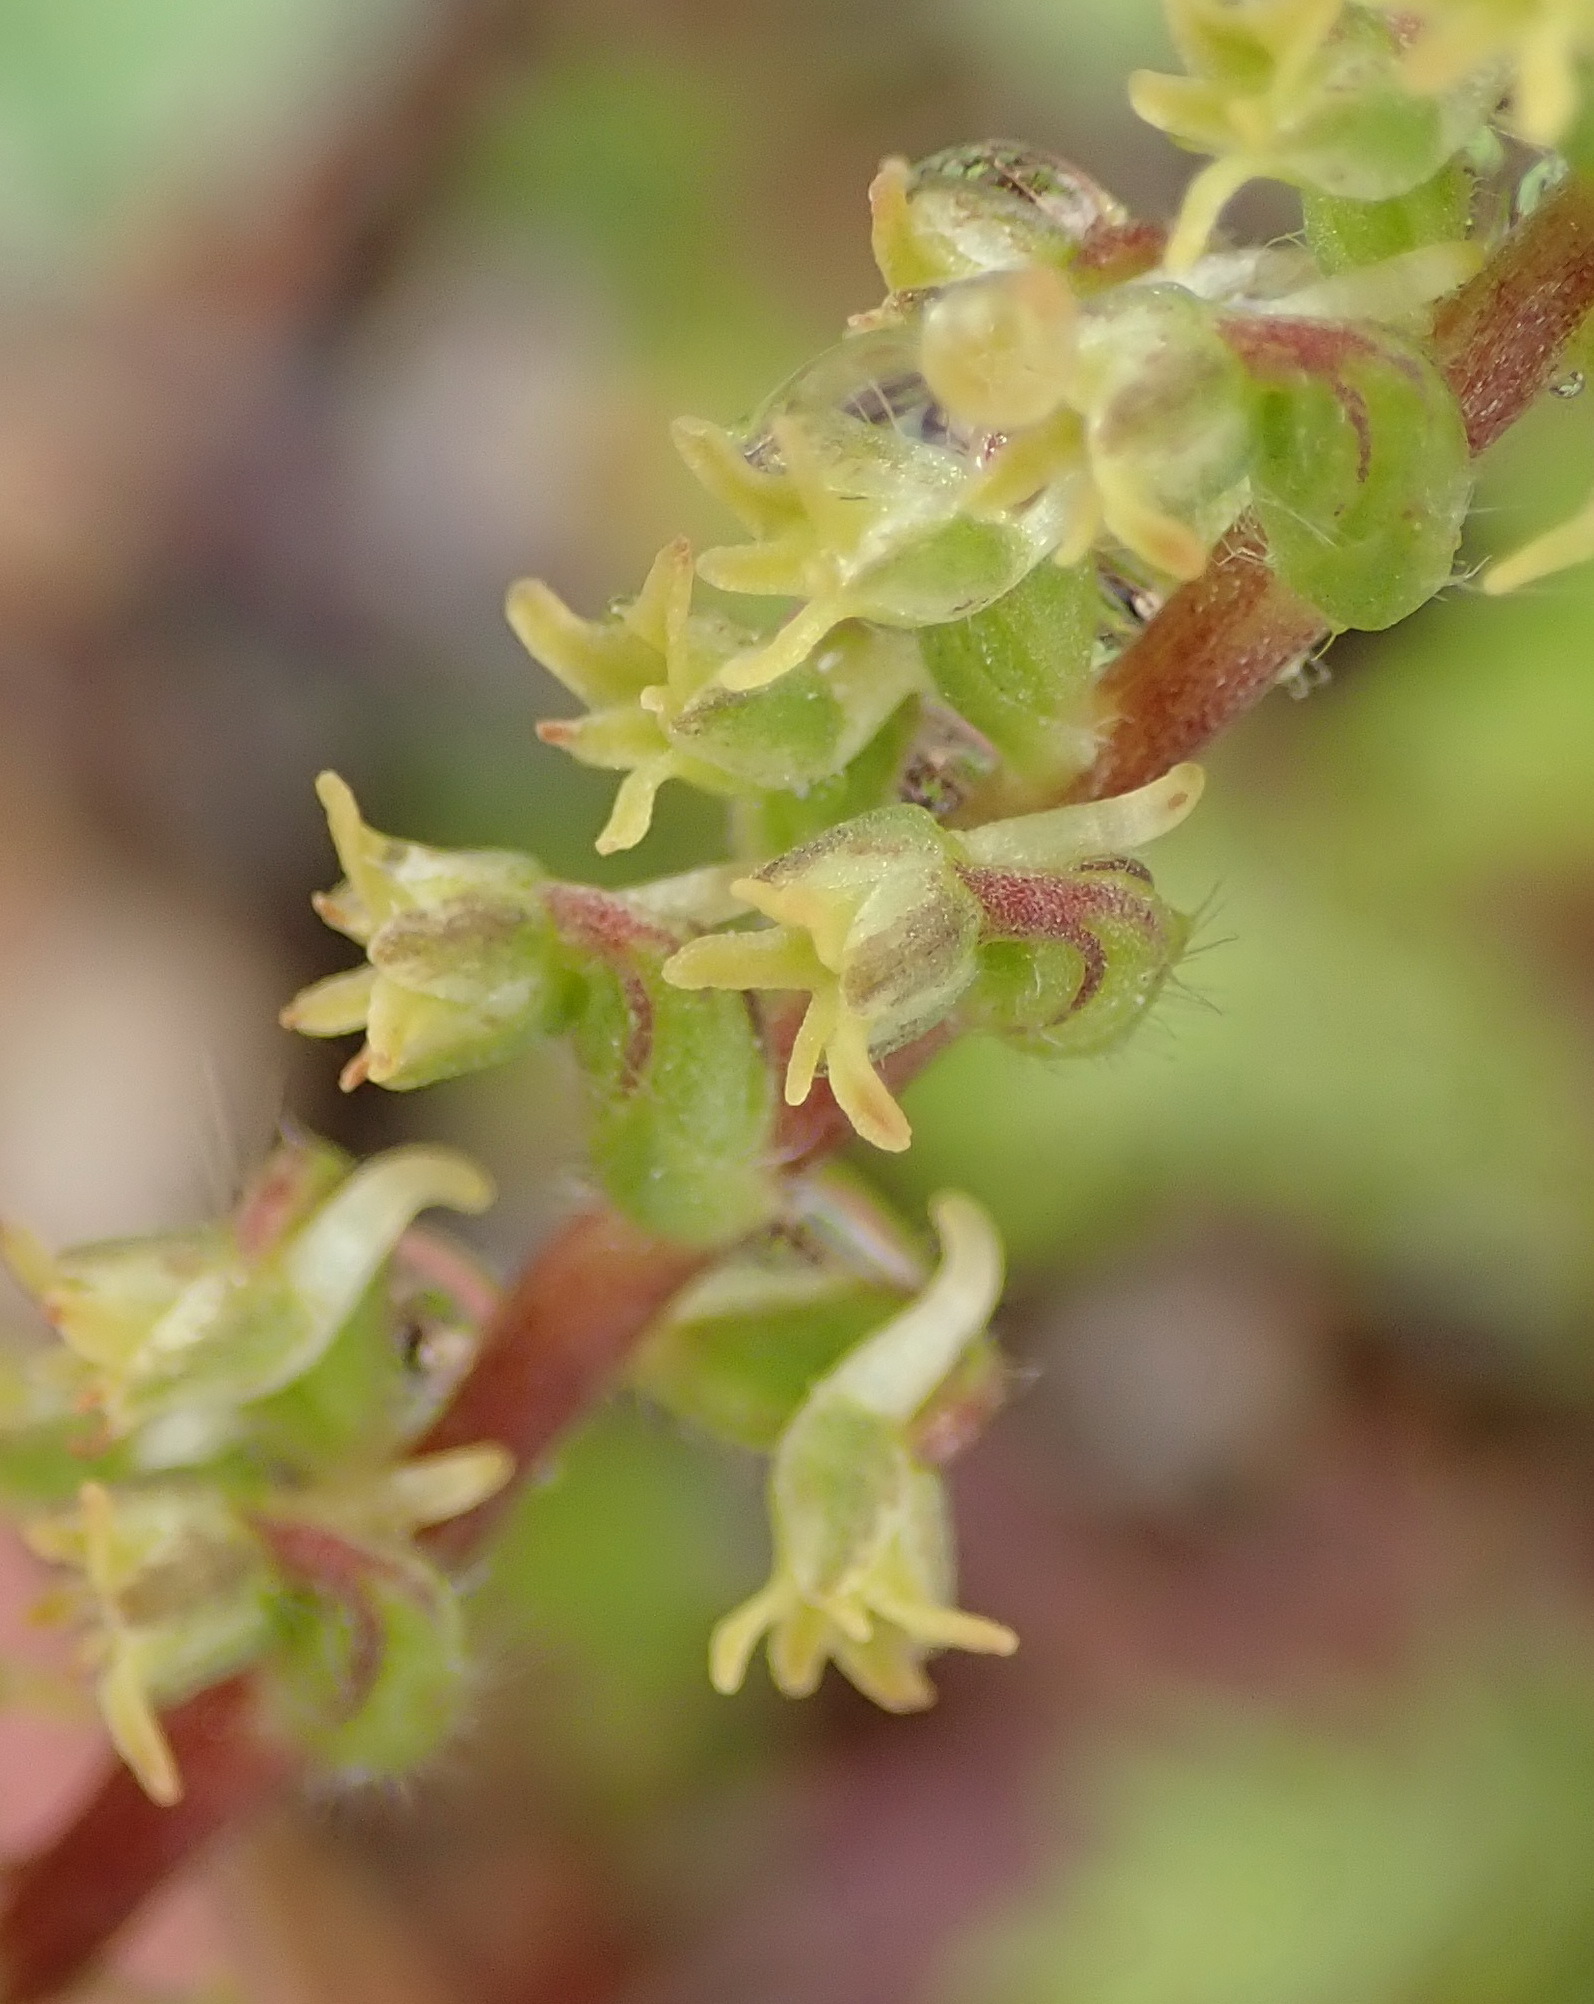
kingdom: Plantae
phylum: Tracheophyta
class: Liliopsida
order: Asparagales
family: Orchidaceae
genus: Holothrix
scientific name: Holothrix villosa
